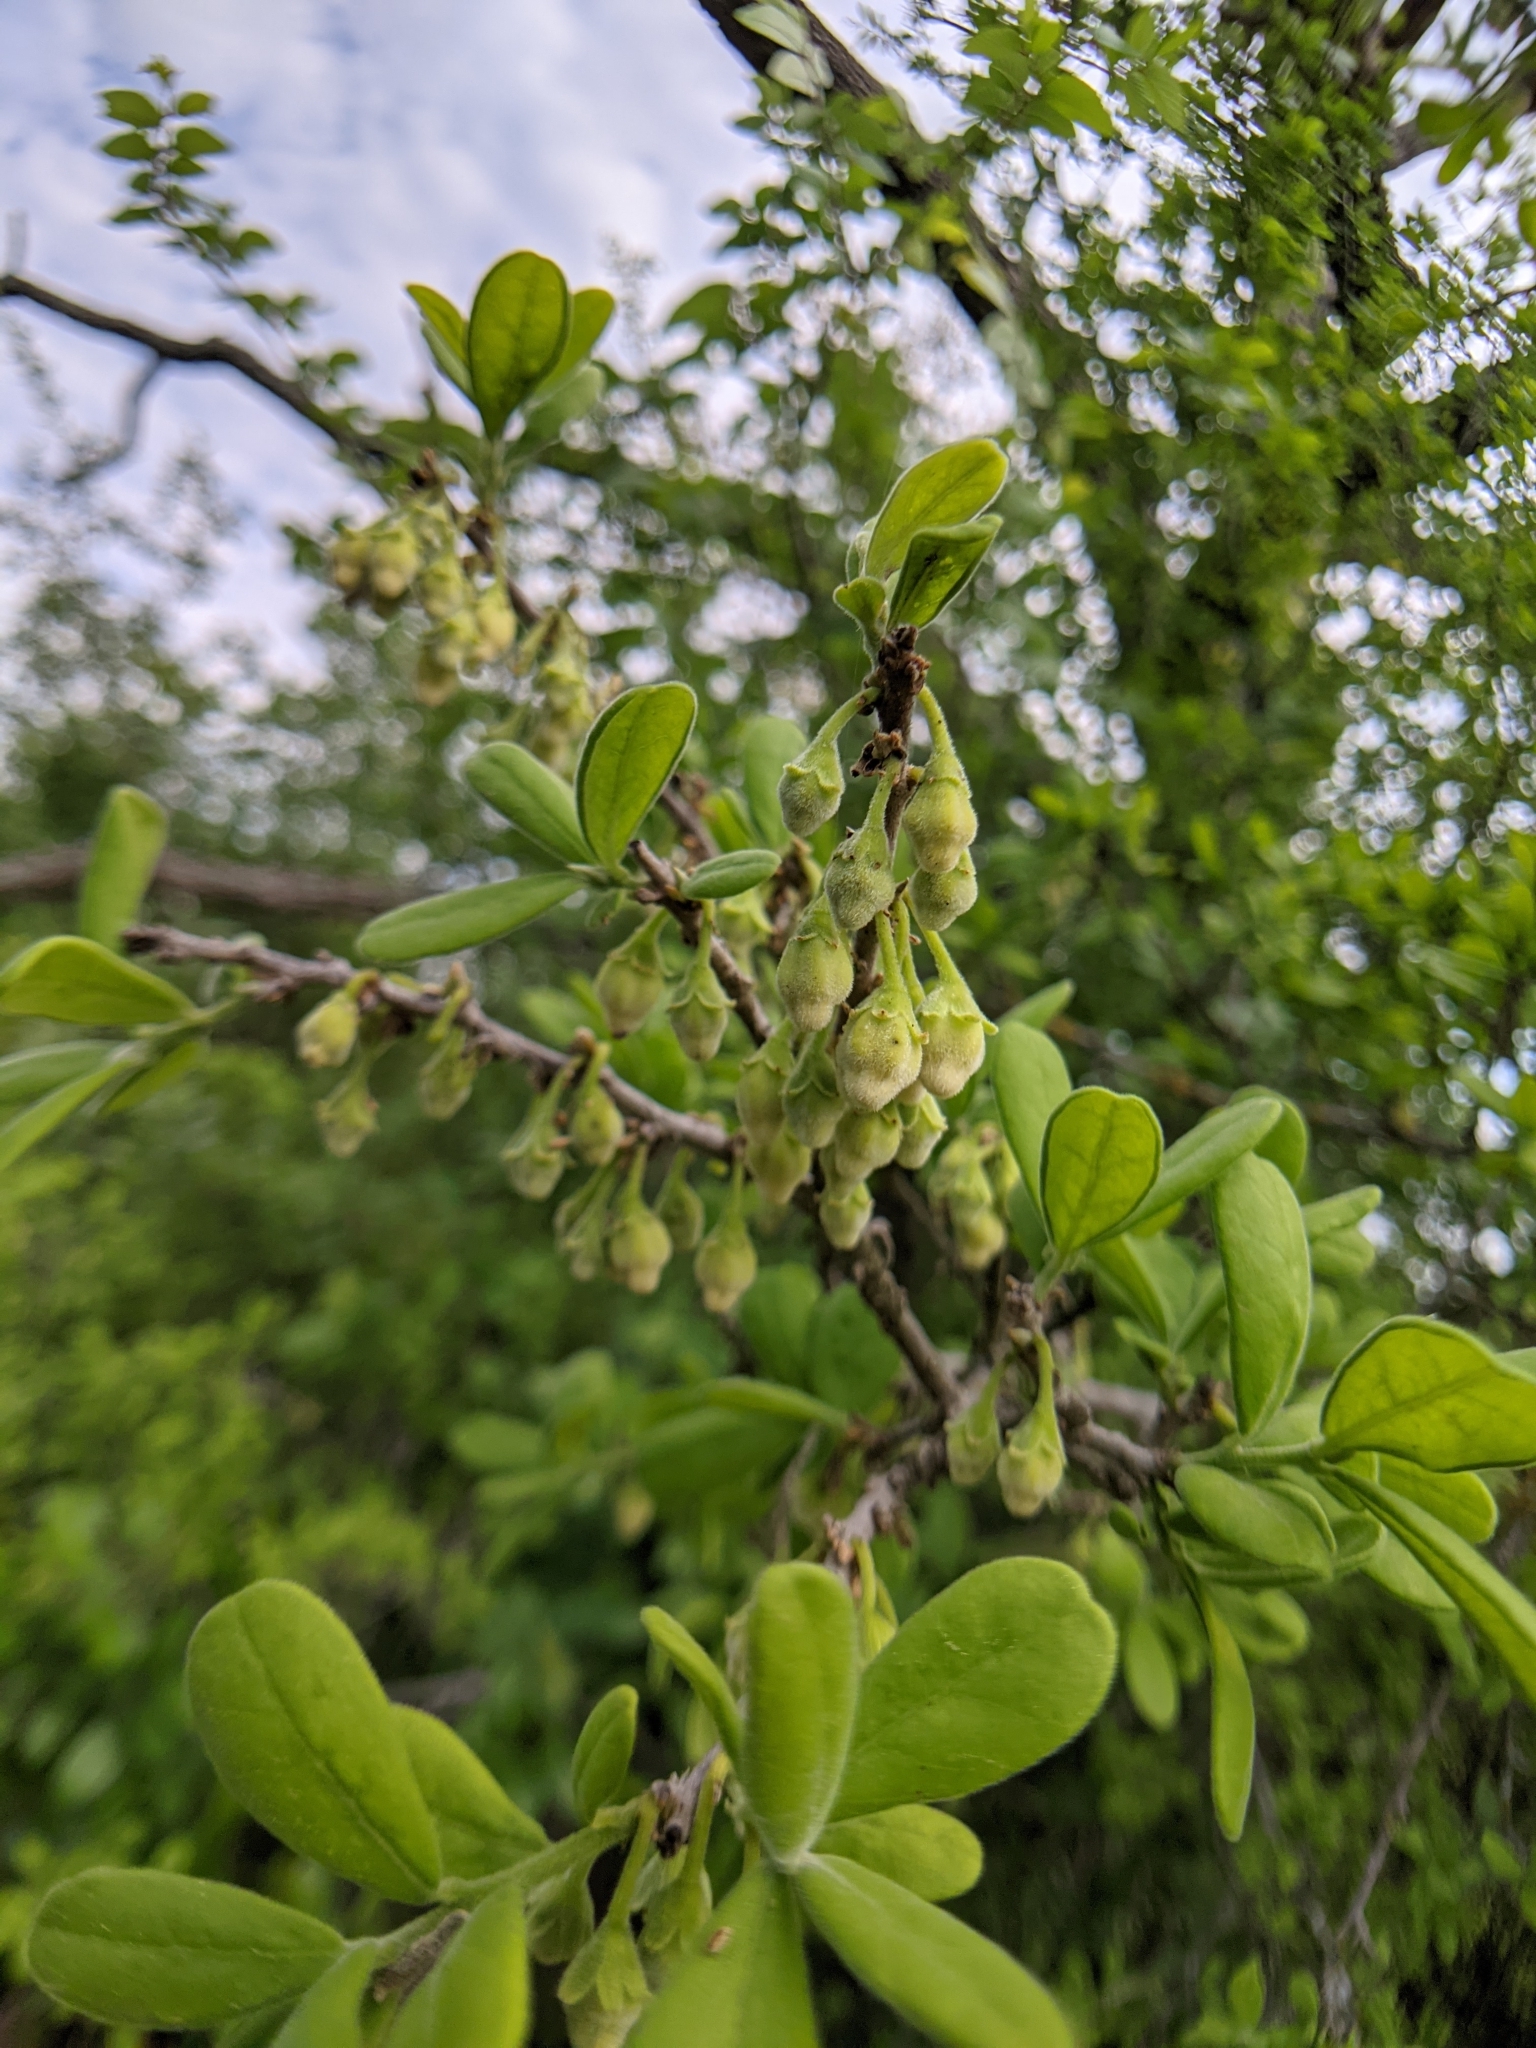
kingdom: Plantae
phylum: Tracheophyta
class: Magnoliopsida
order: Ericales
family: Ebenaceae
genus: Diospyros
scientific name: Diospyros texana
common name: Texas persimmon
